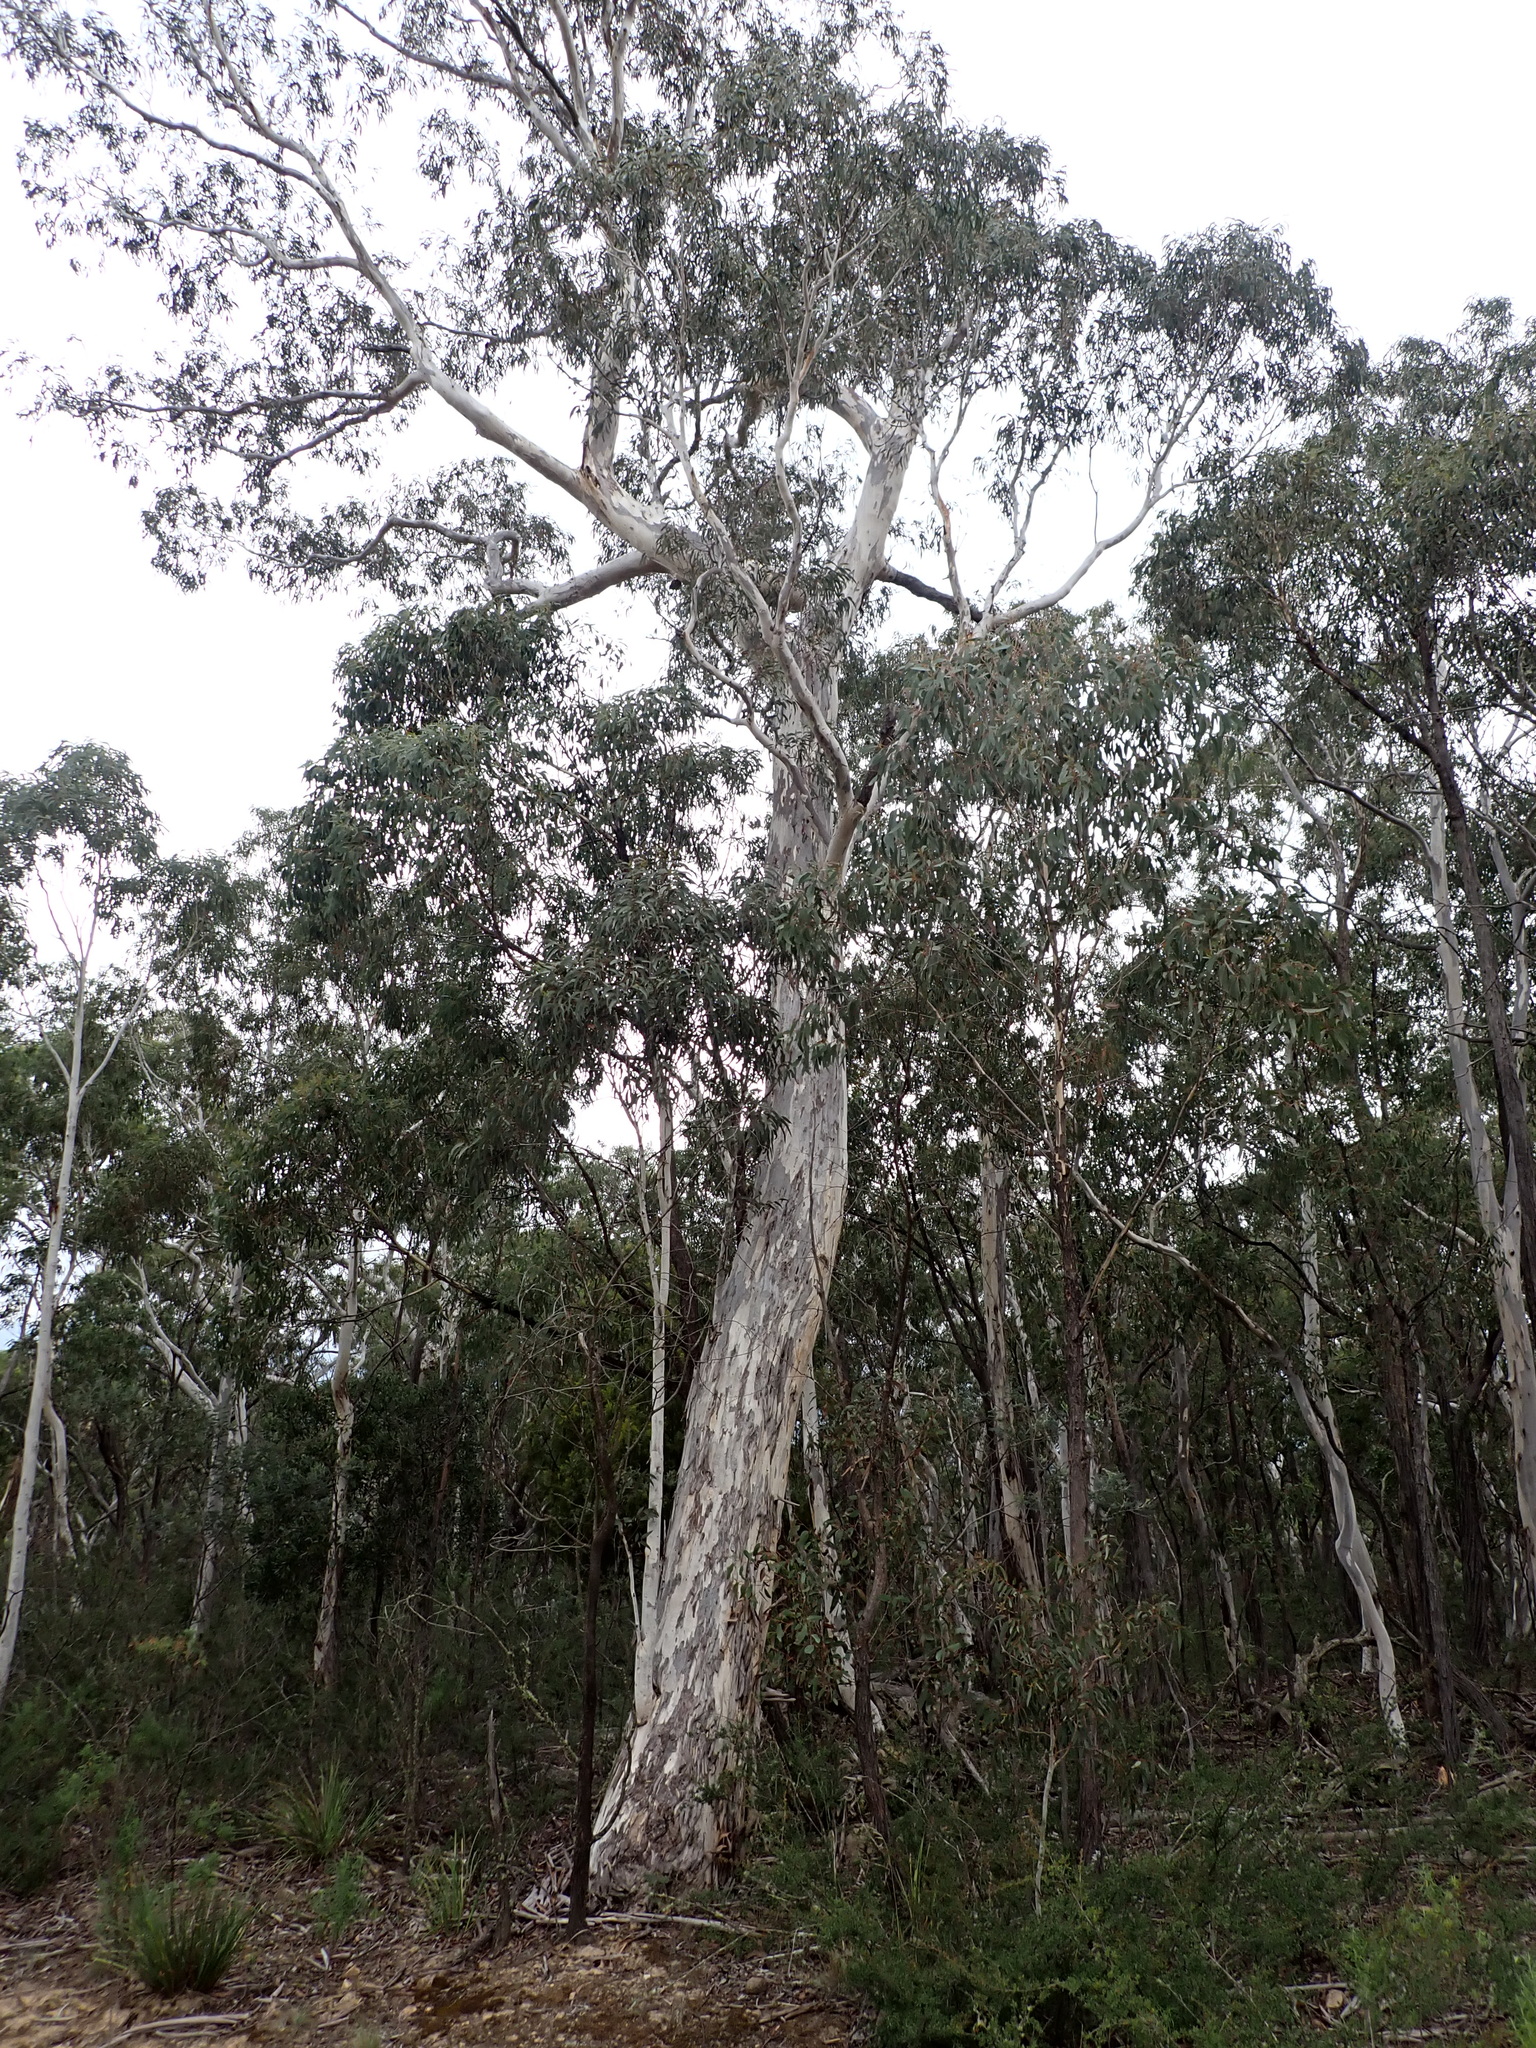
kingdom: Plantae
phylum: Tracheophyta
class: Magnoliopsida
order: Myrtales
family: Myrtaceae
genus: Eucalyptus
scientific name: Eucalyptus mannifera
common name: Manna gum
